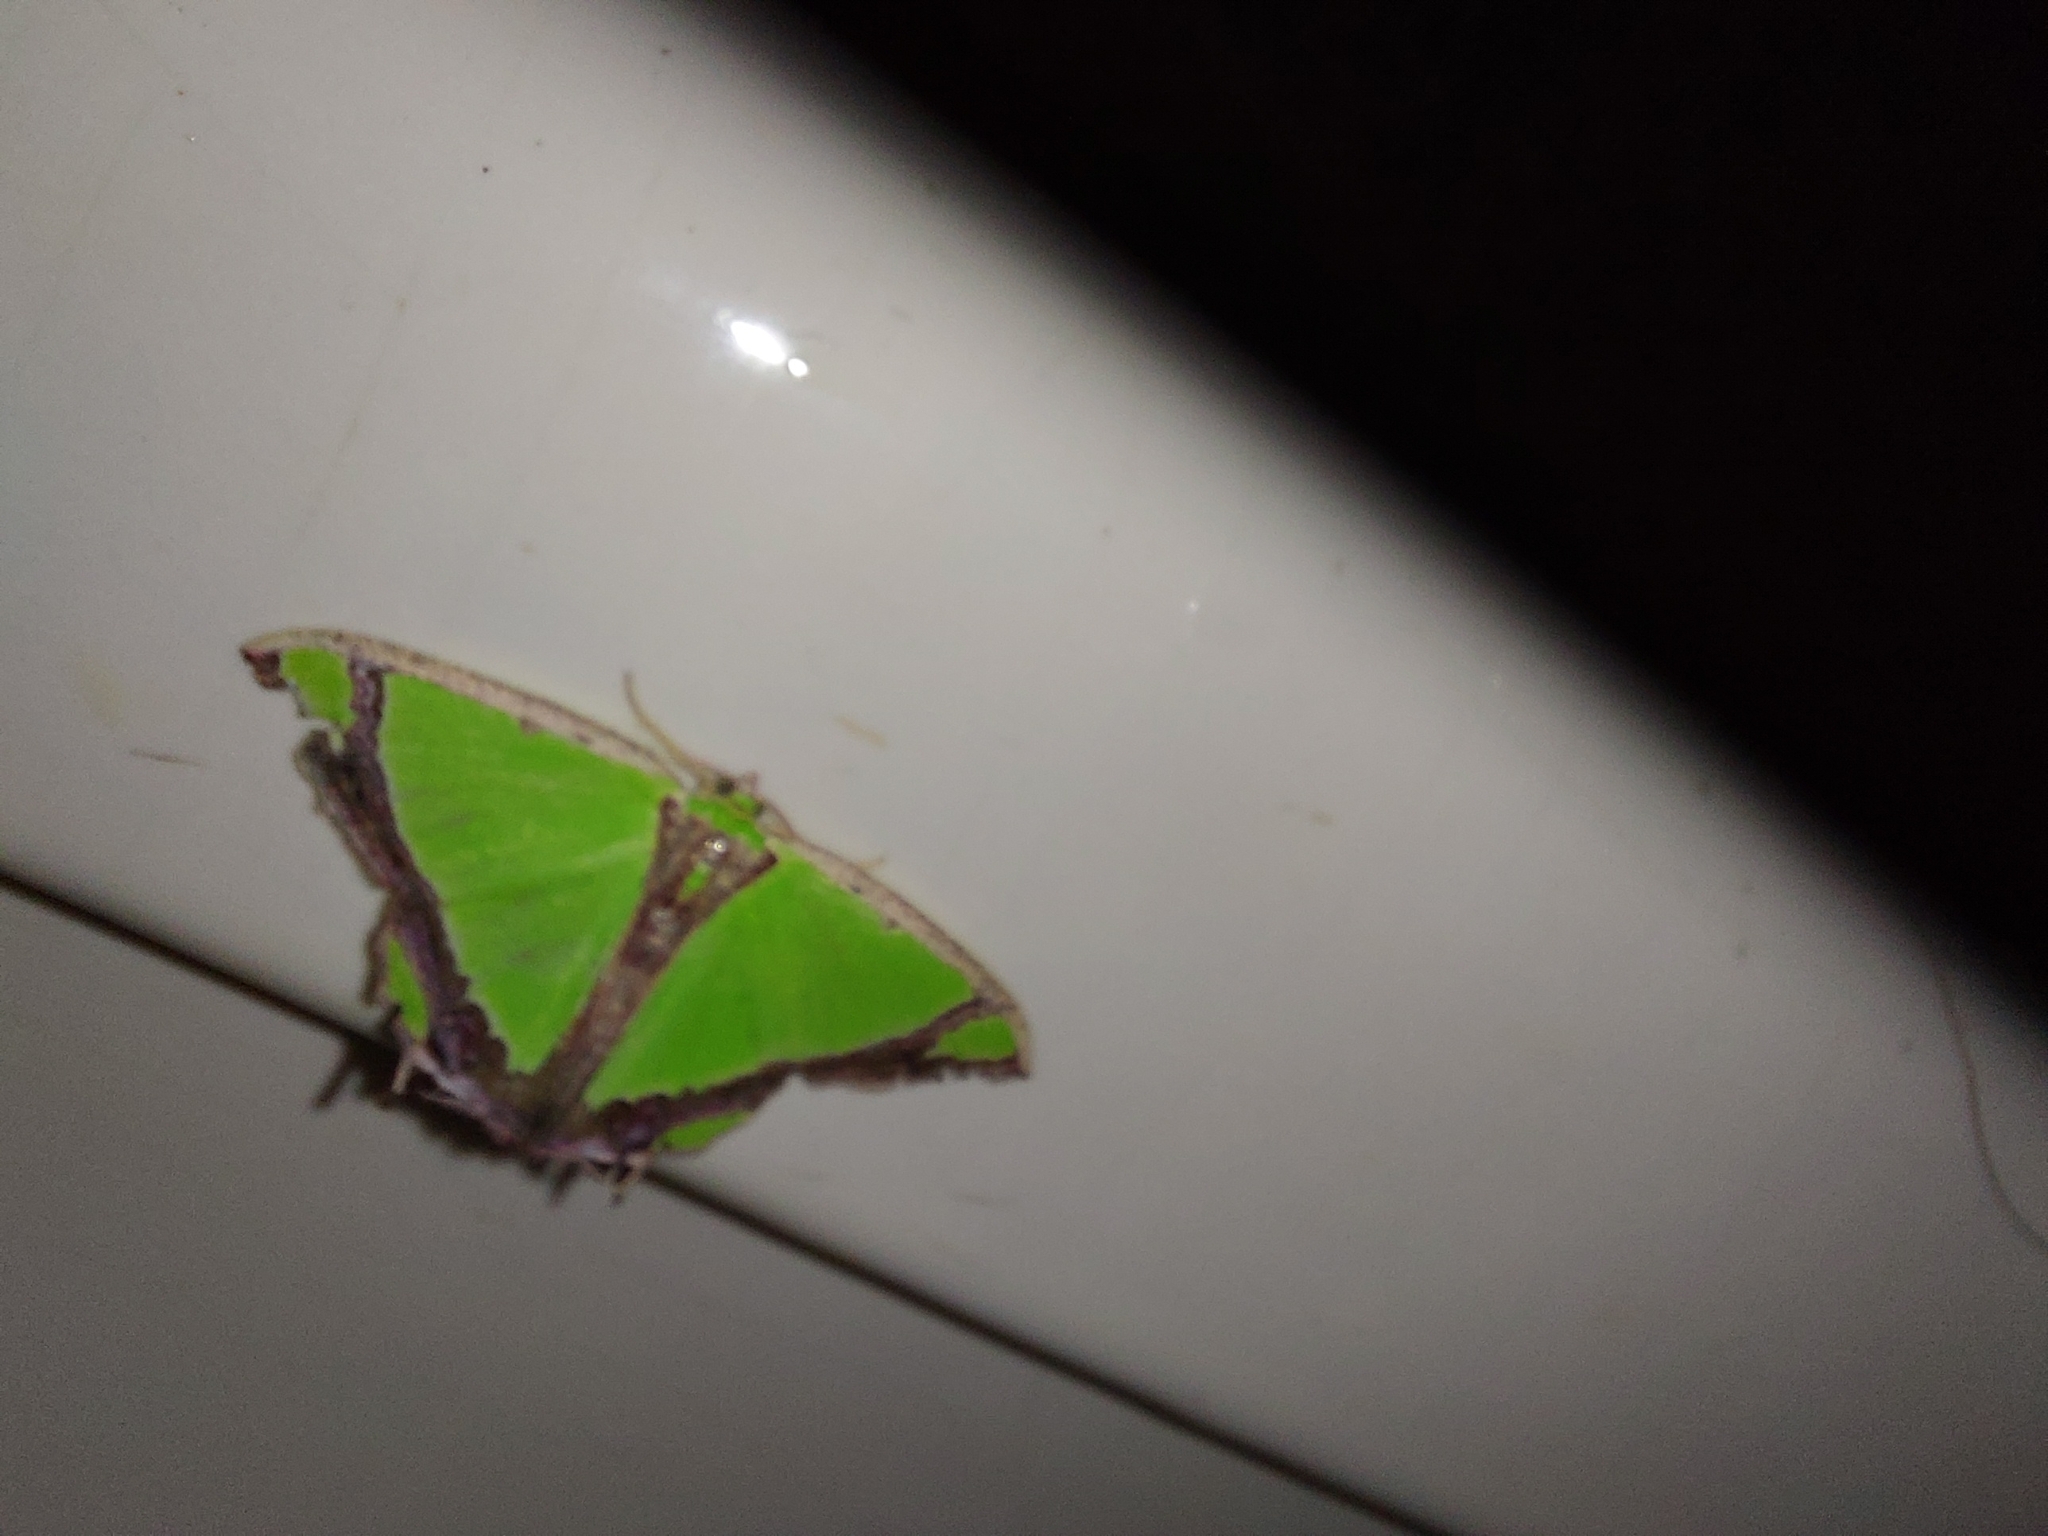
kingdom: Animalia
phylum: Arthropoda
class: Insecta
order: Lepidoptera
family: Geometridae
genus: Agathia
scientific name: Agathia laetata
